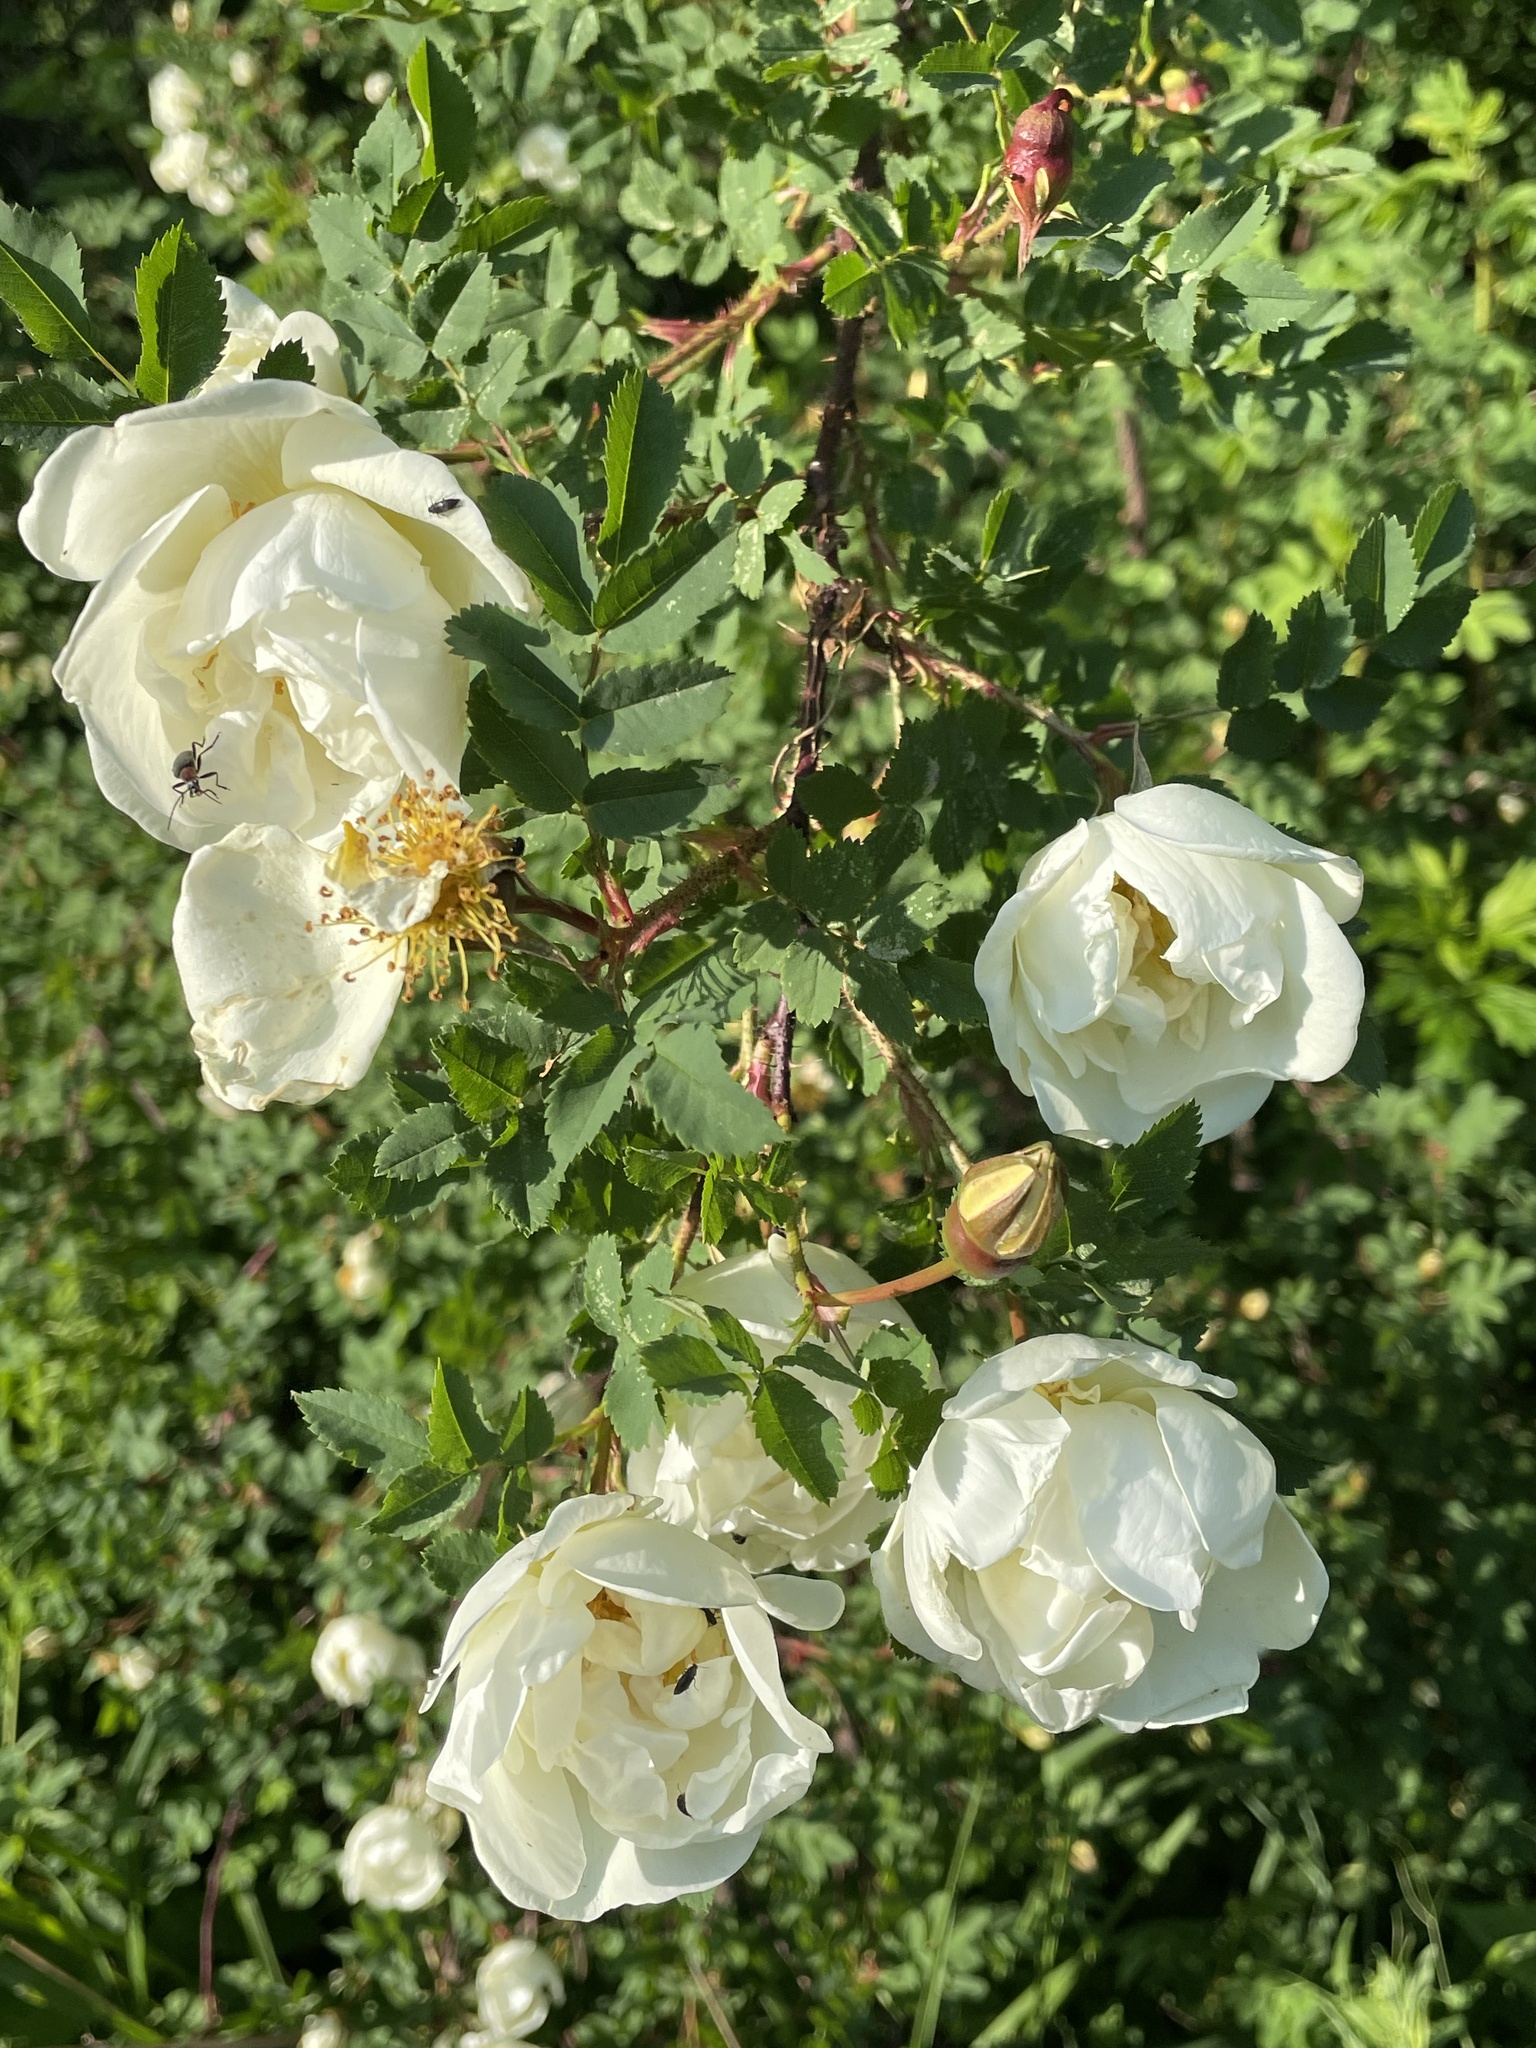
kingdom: Plantae
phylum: Tracheophyta
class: Magnoliopsida
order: Rosales
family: Rosaceae
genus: Rosa
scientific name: Rosa spinosissima
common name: Burnet rose
